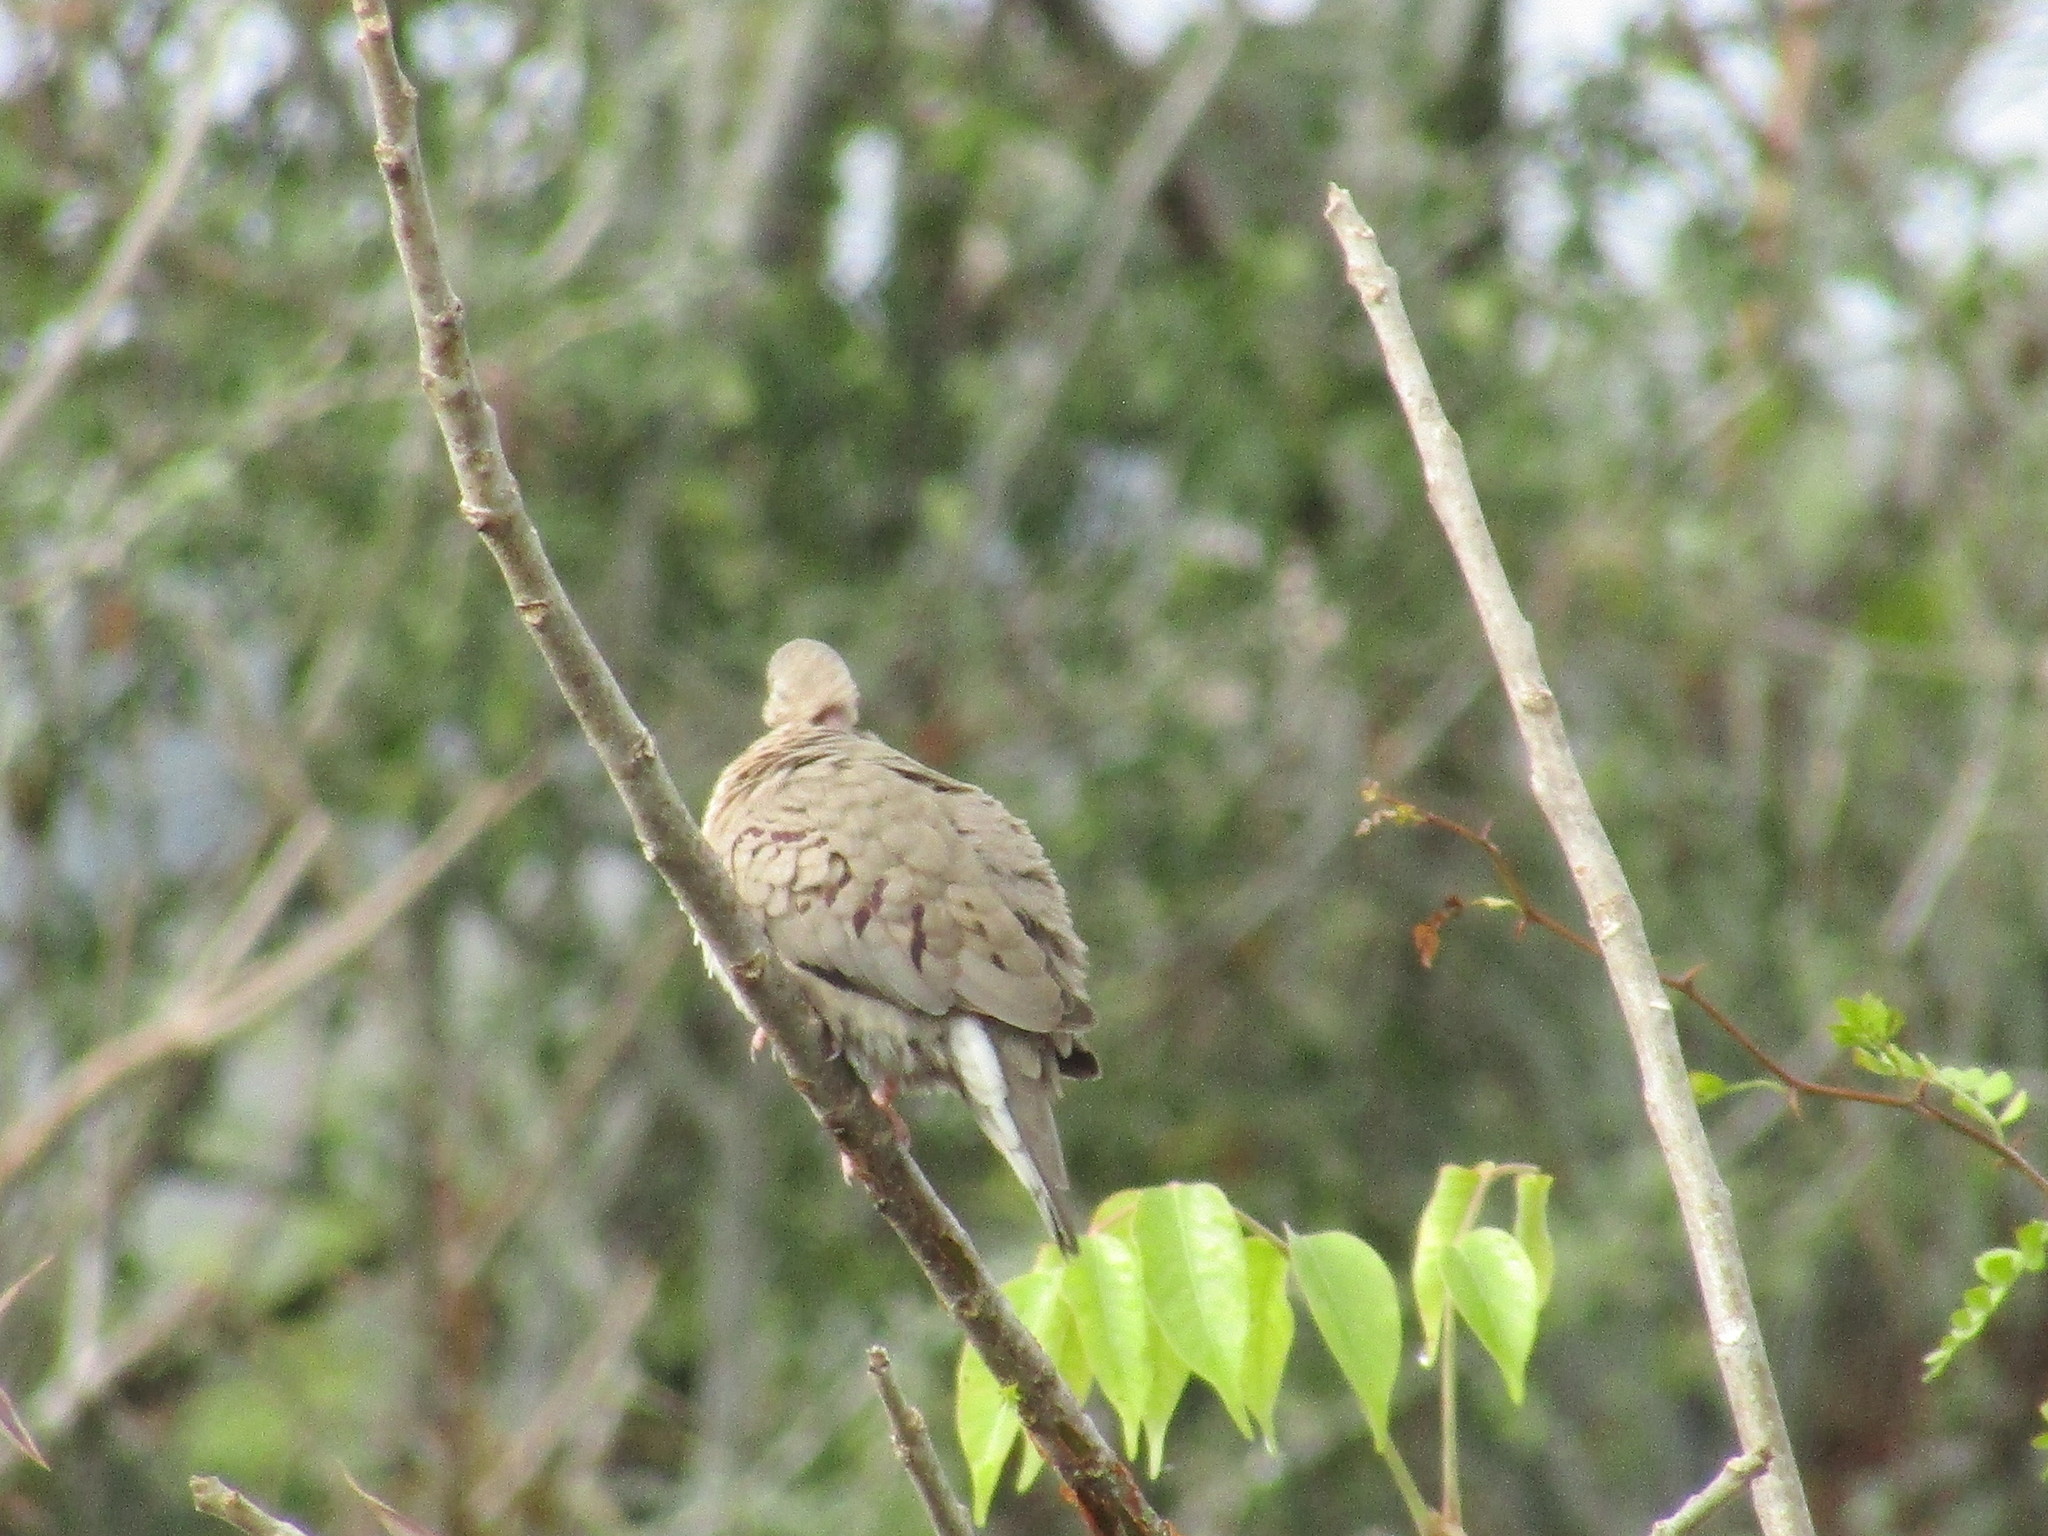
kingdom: Animalia
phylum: Chordata
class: Aves
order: Columbiformes
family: Columbidae
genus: Columbina
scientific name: Columbina passerina
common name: Common ground-dove
